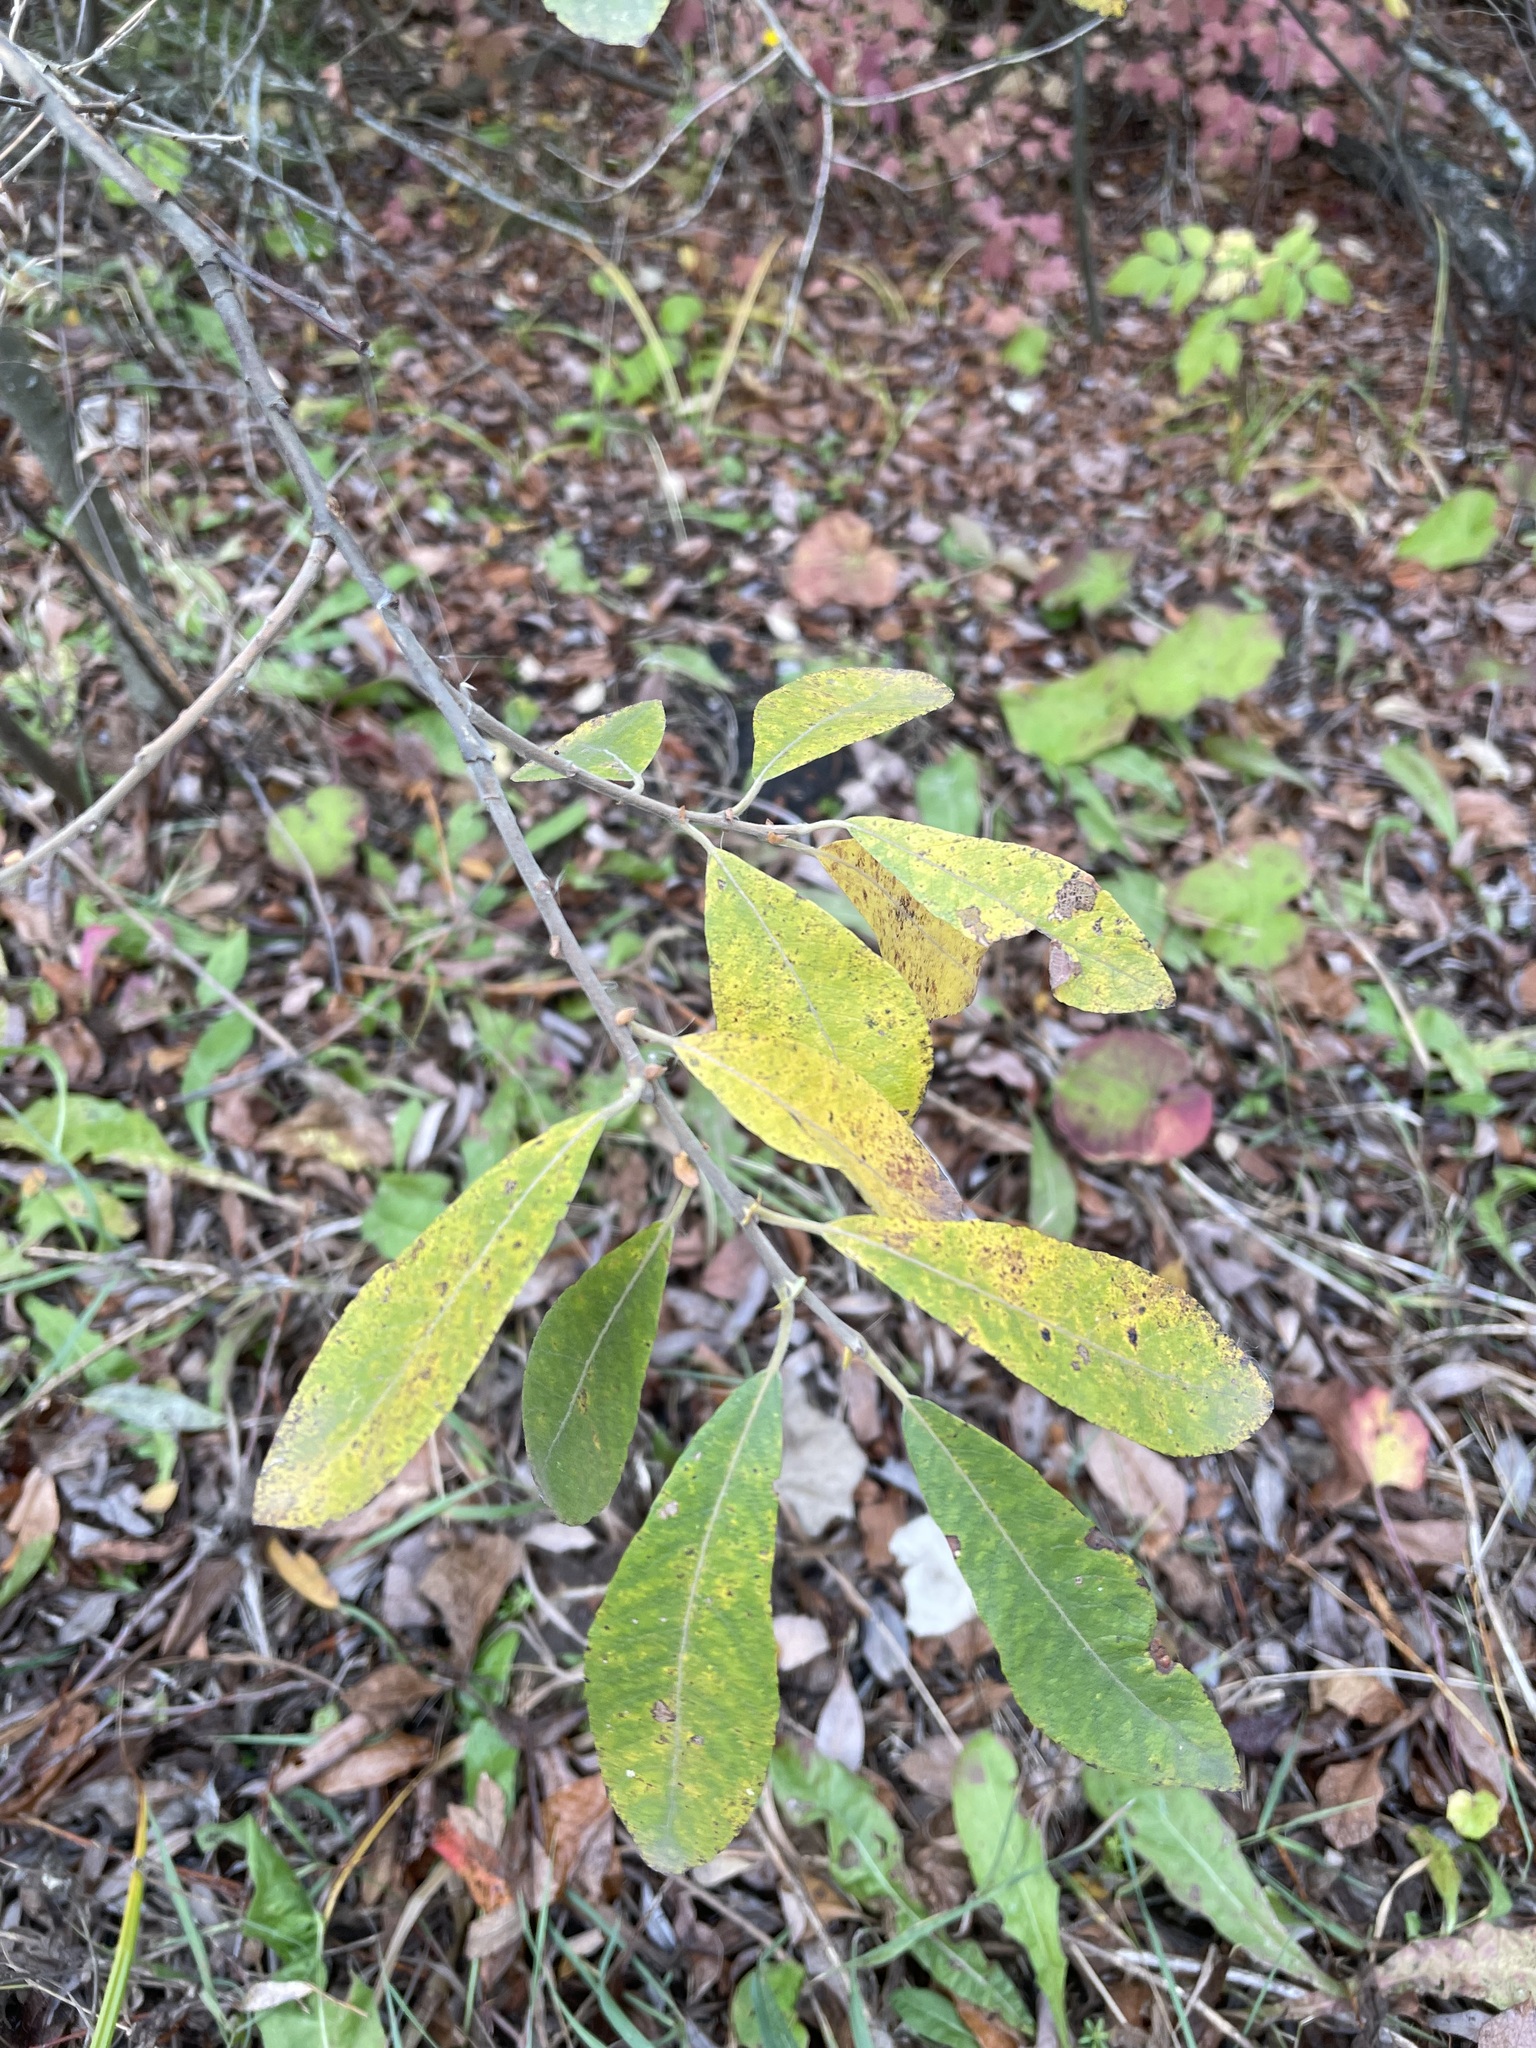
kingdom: Plantae
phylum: Tracheophyta
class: Magnoliopsida
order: Malpighiales
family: Salicaceae
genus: Salix
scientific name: Salix cinerea
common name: Common sallow
